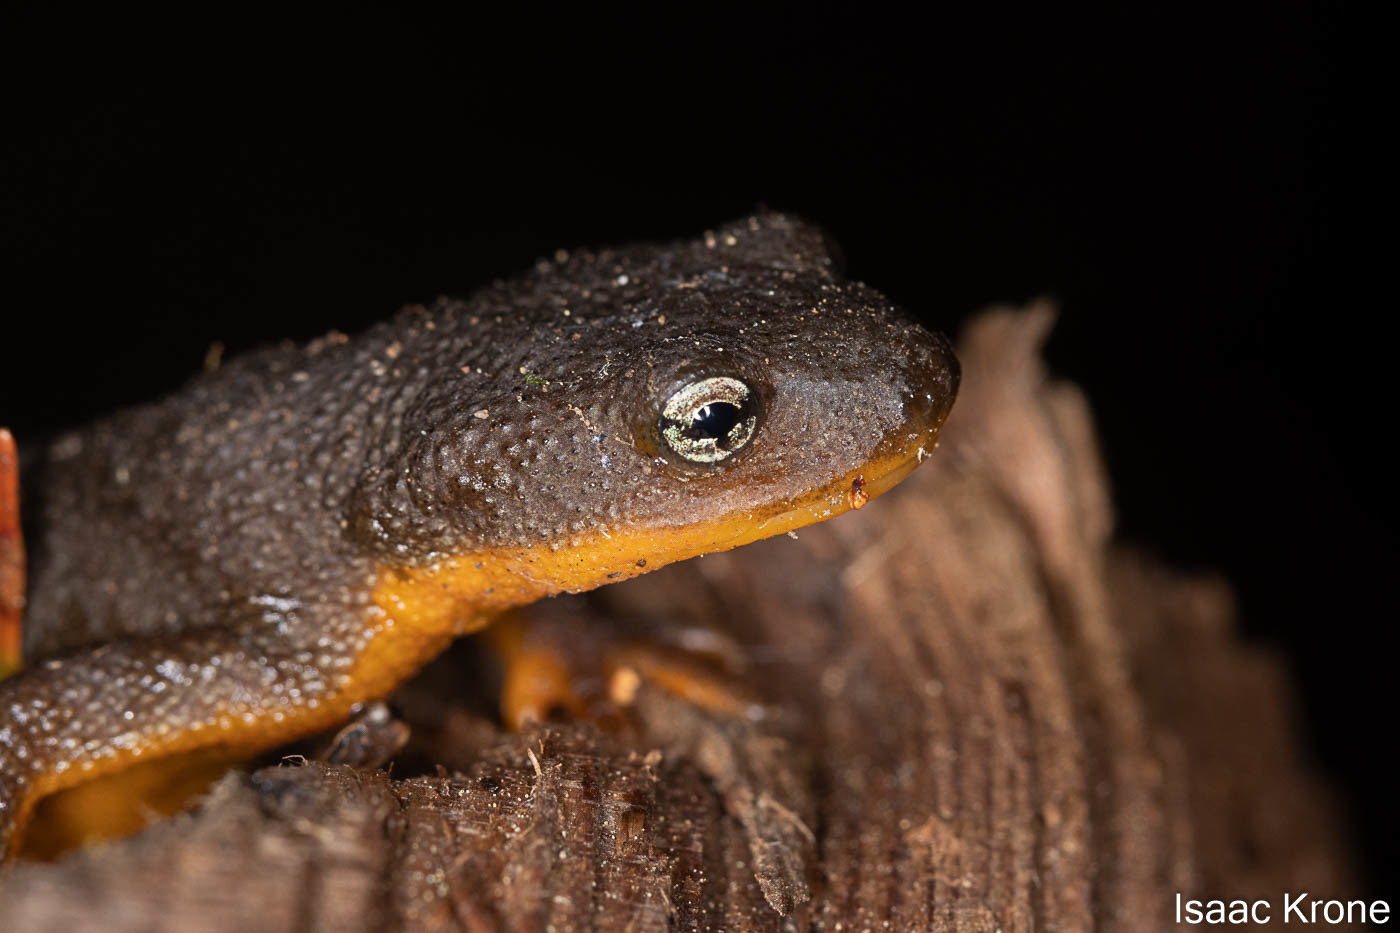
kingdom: Animalia
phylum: Chordata
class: Amphibia
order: Caudata
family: Salamandridae
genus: Taricha
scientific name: Taricha granulosa
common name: Roughskin newt
